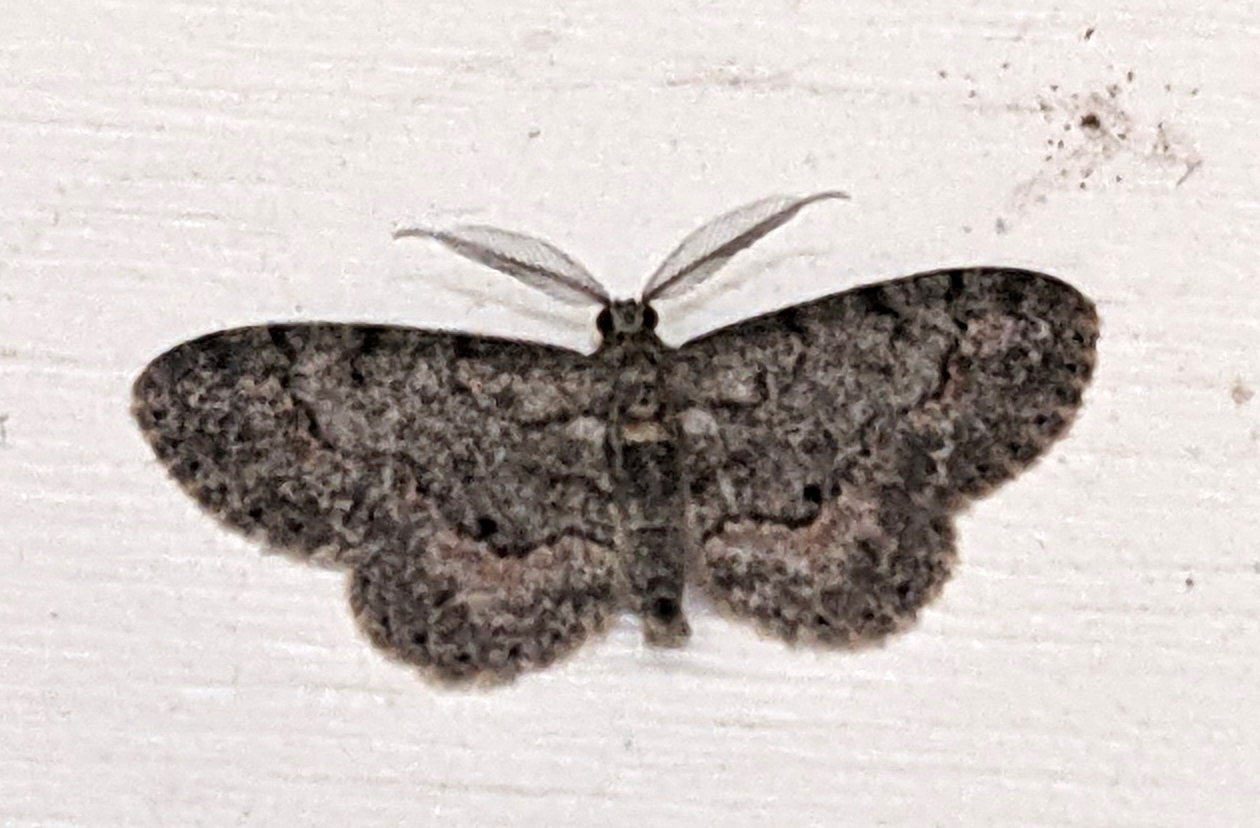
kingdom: Animalia
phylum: Arthropoda
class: Insecta
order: Lepidoptera
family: Geometridae
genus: Glenoides
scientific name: Glenoides texanaria
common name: Texas gray
